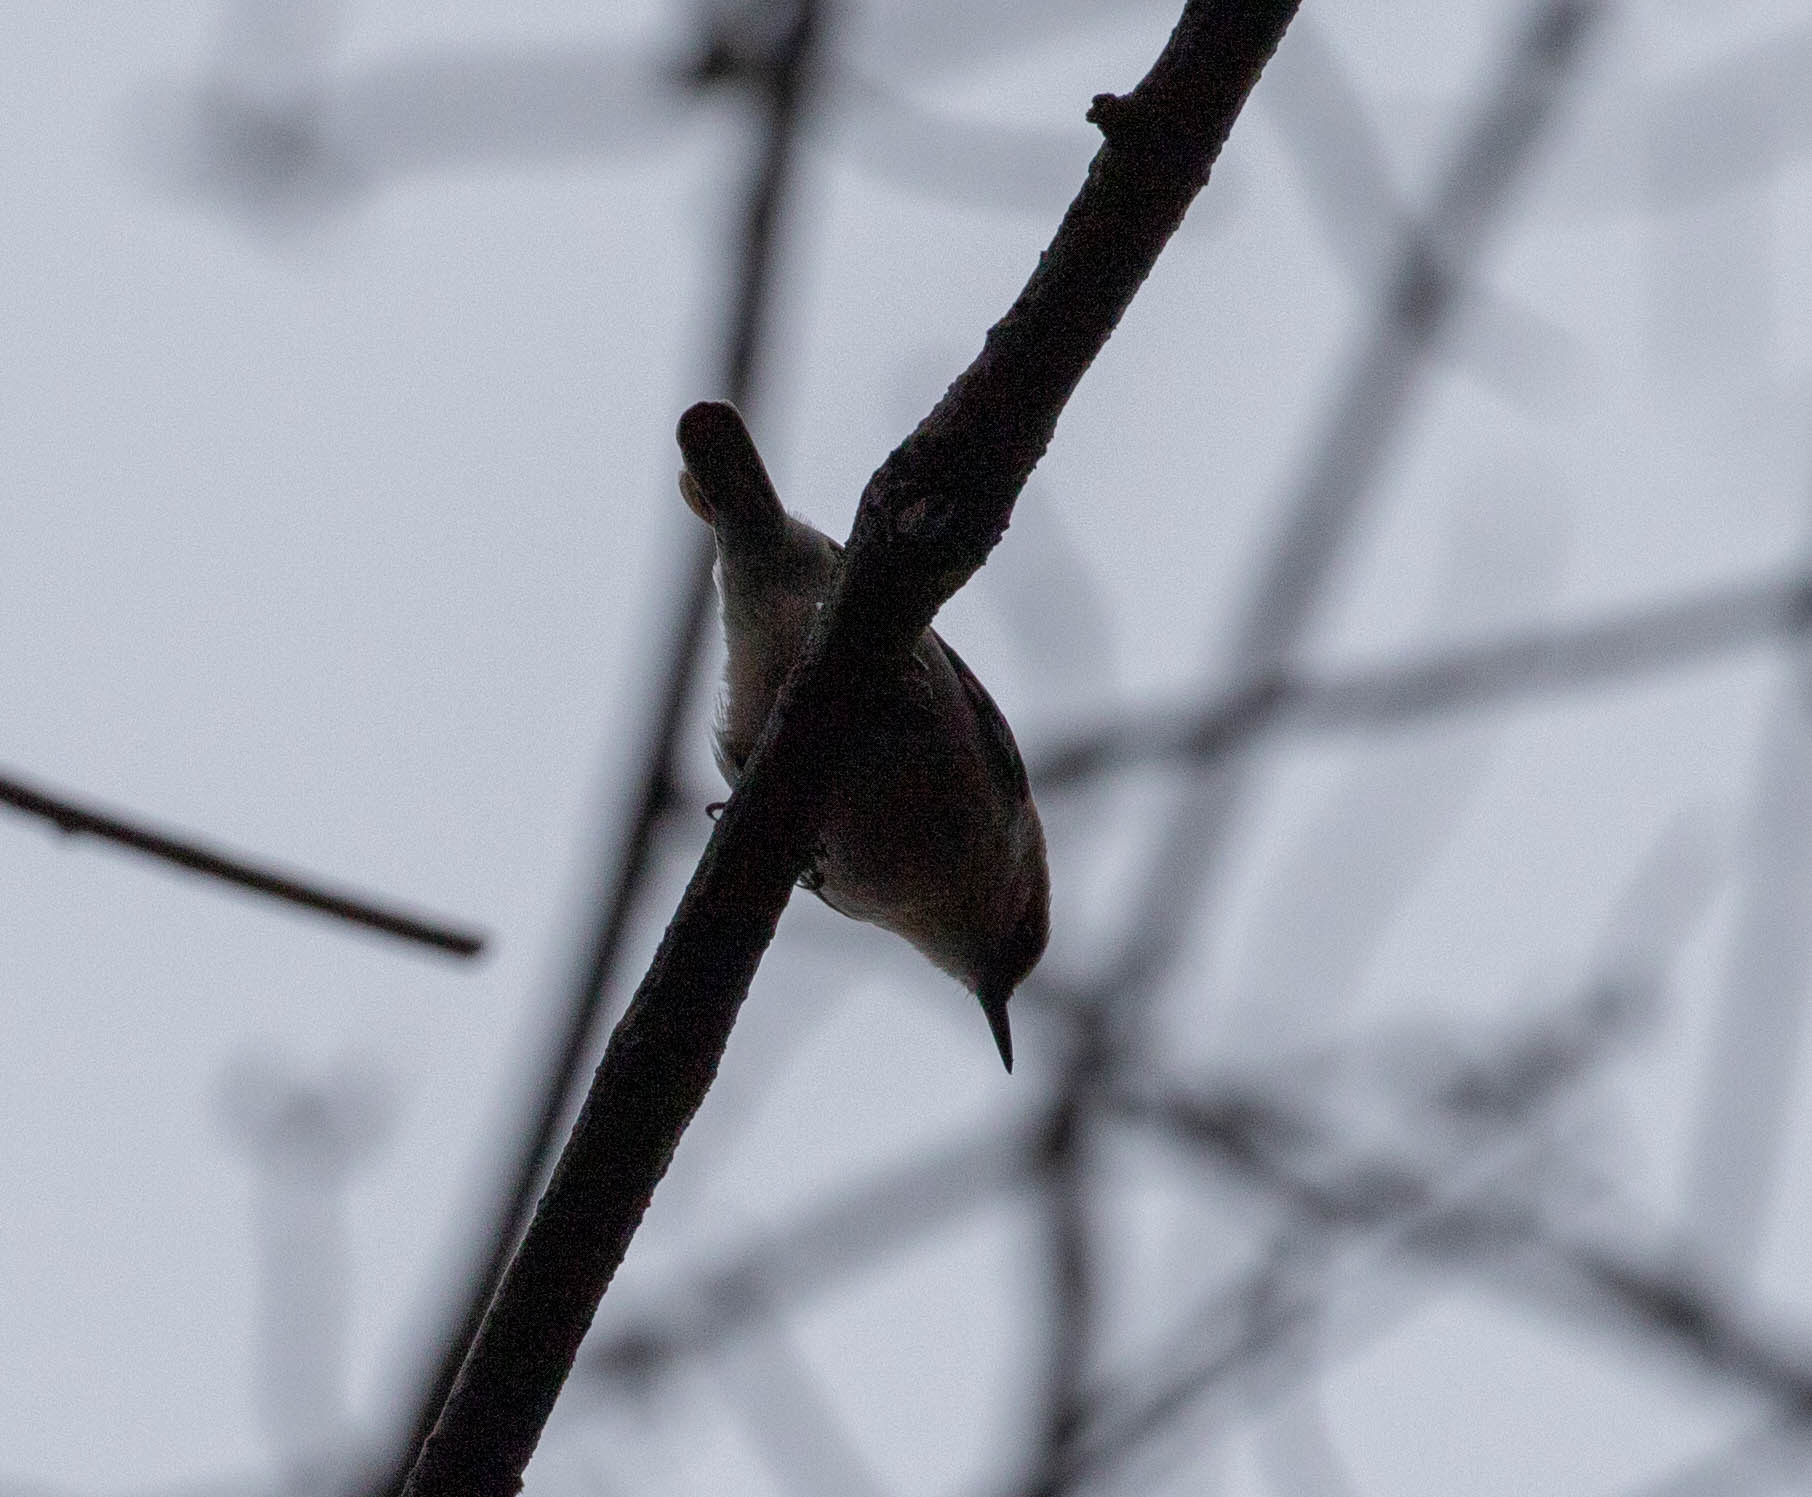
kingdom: Animalia
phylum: Chordata
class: Aves
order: Passeriformes
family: Sittidae
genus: Sitta
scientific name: Sitta pusilla
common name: Brown-headed nuthatch
